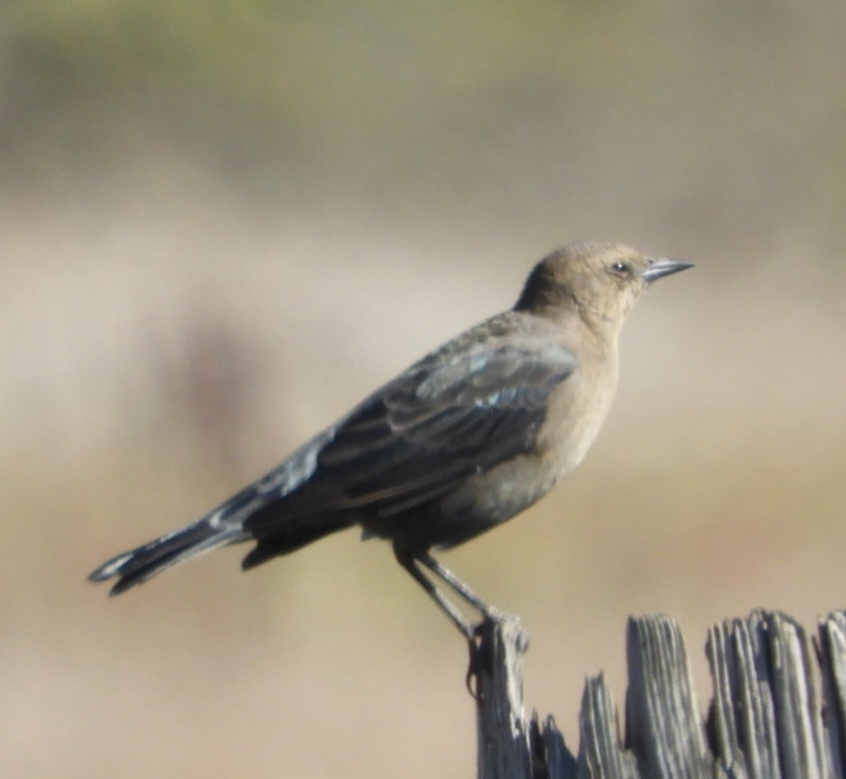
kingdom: Animalia
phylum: Chordata
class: Aves
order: Passeriformes
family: Icteridae
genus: Euphagus
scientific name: Euphagus cyanocephalus
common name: Brewer's blackbird
